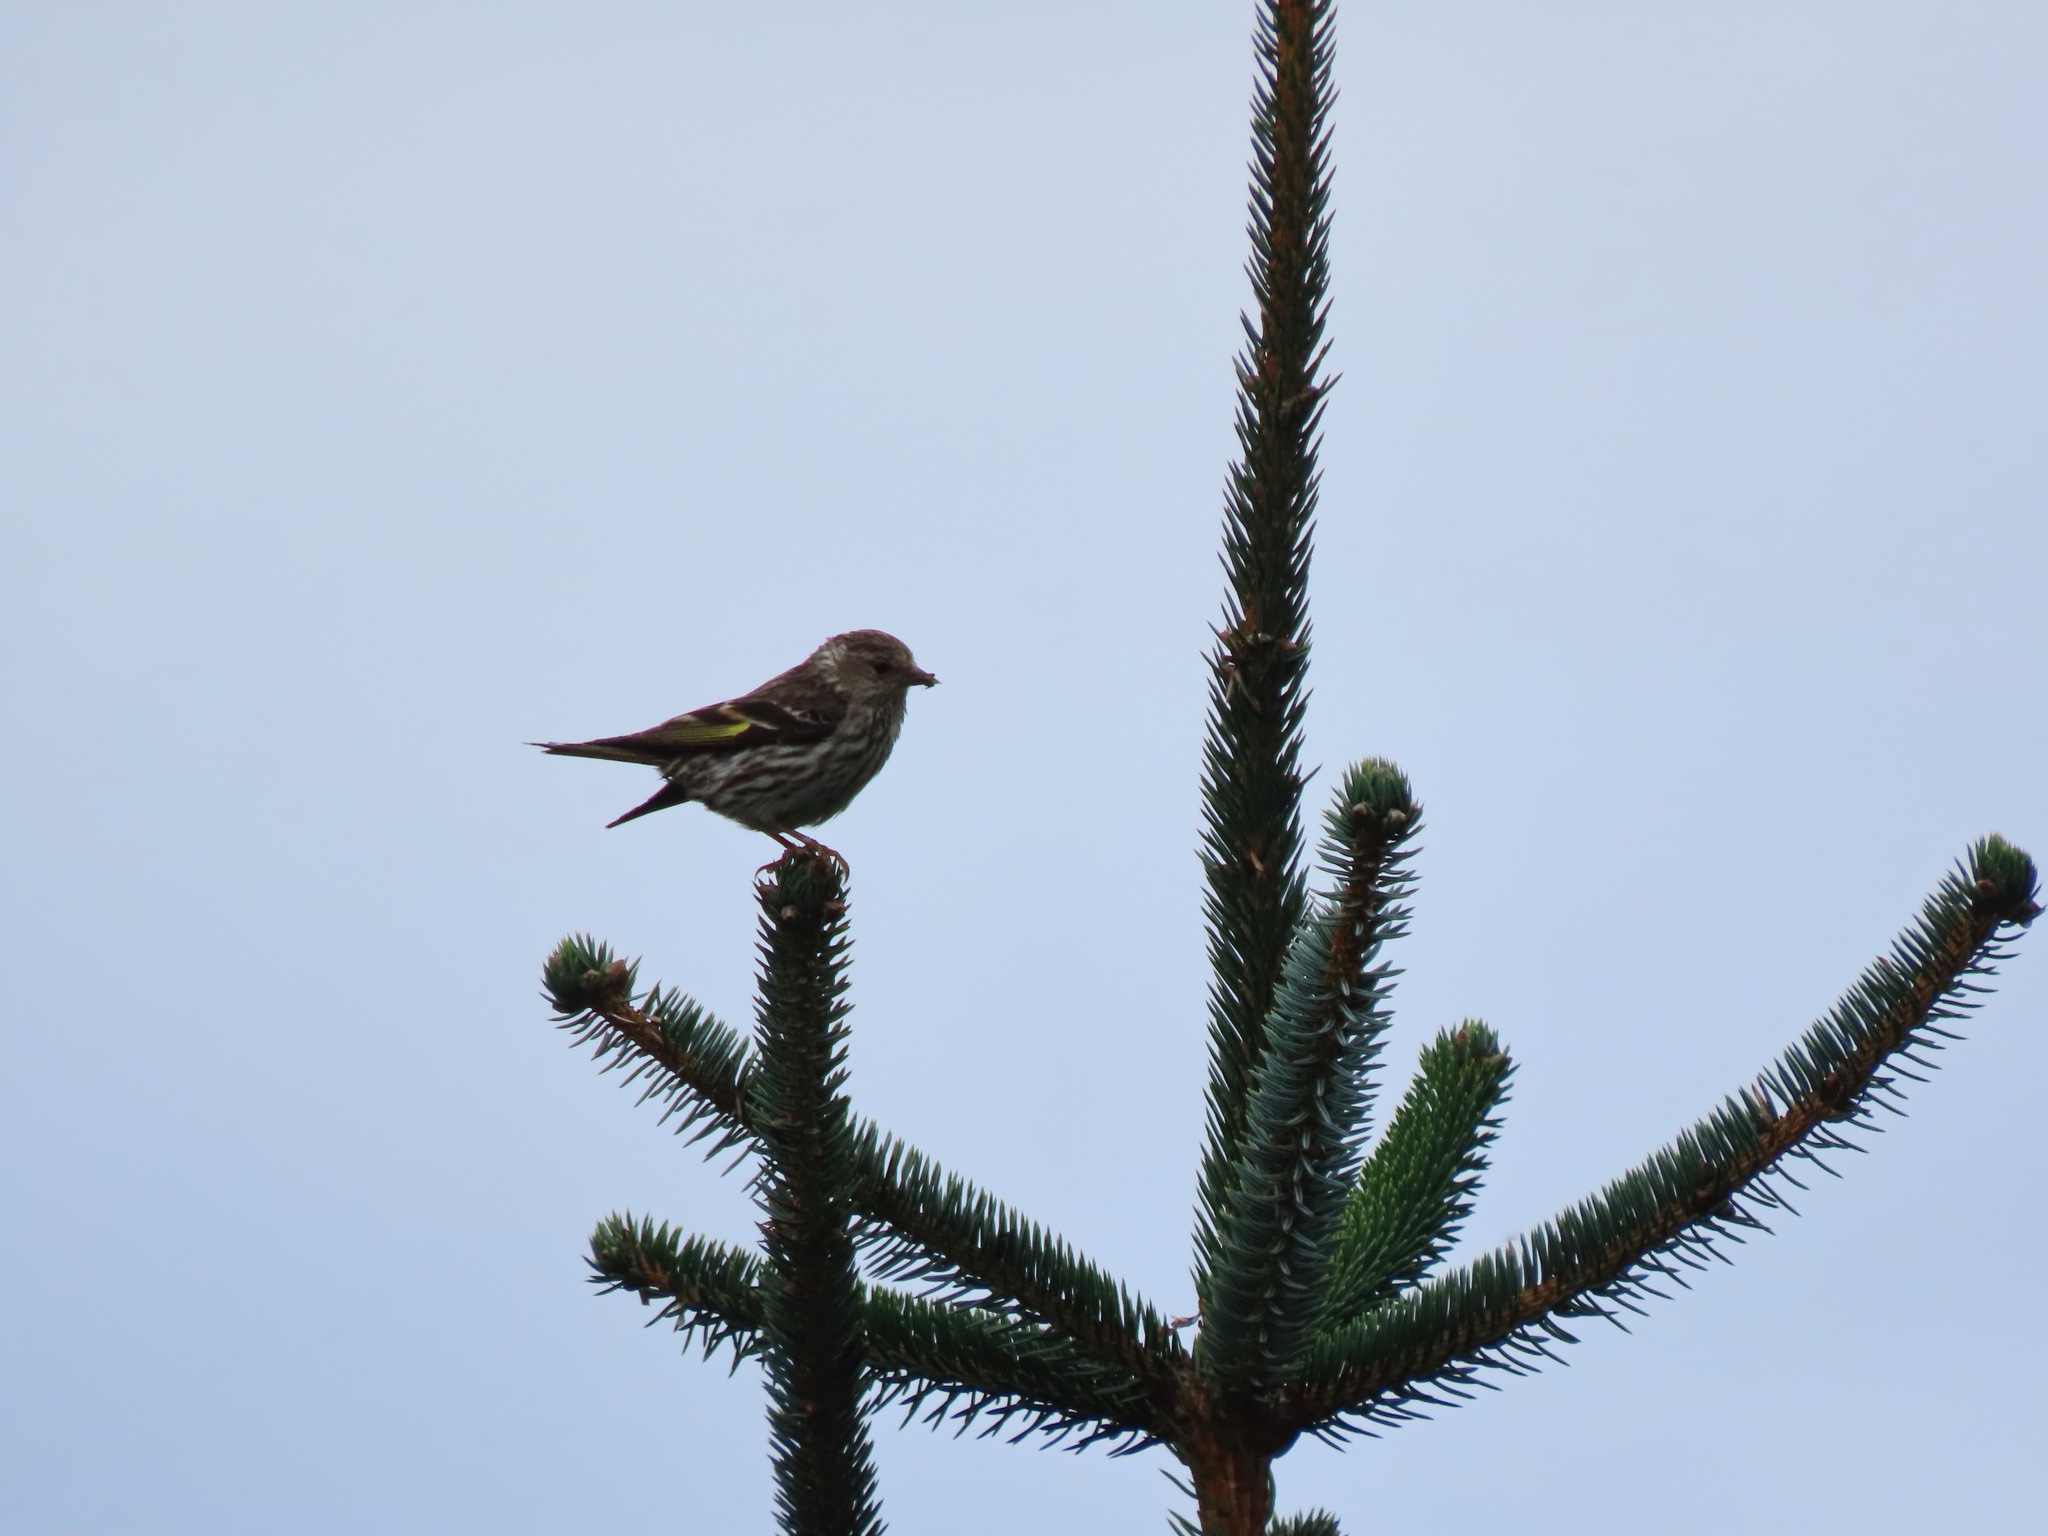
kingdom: Animalia
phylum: Chordata
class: Aves
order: Passeriformes
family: Fringillidae
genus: Spinus
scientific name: Spinus pinus
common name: Pine siskin
